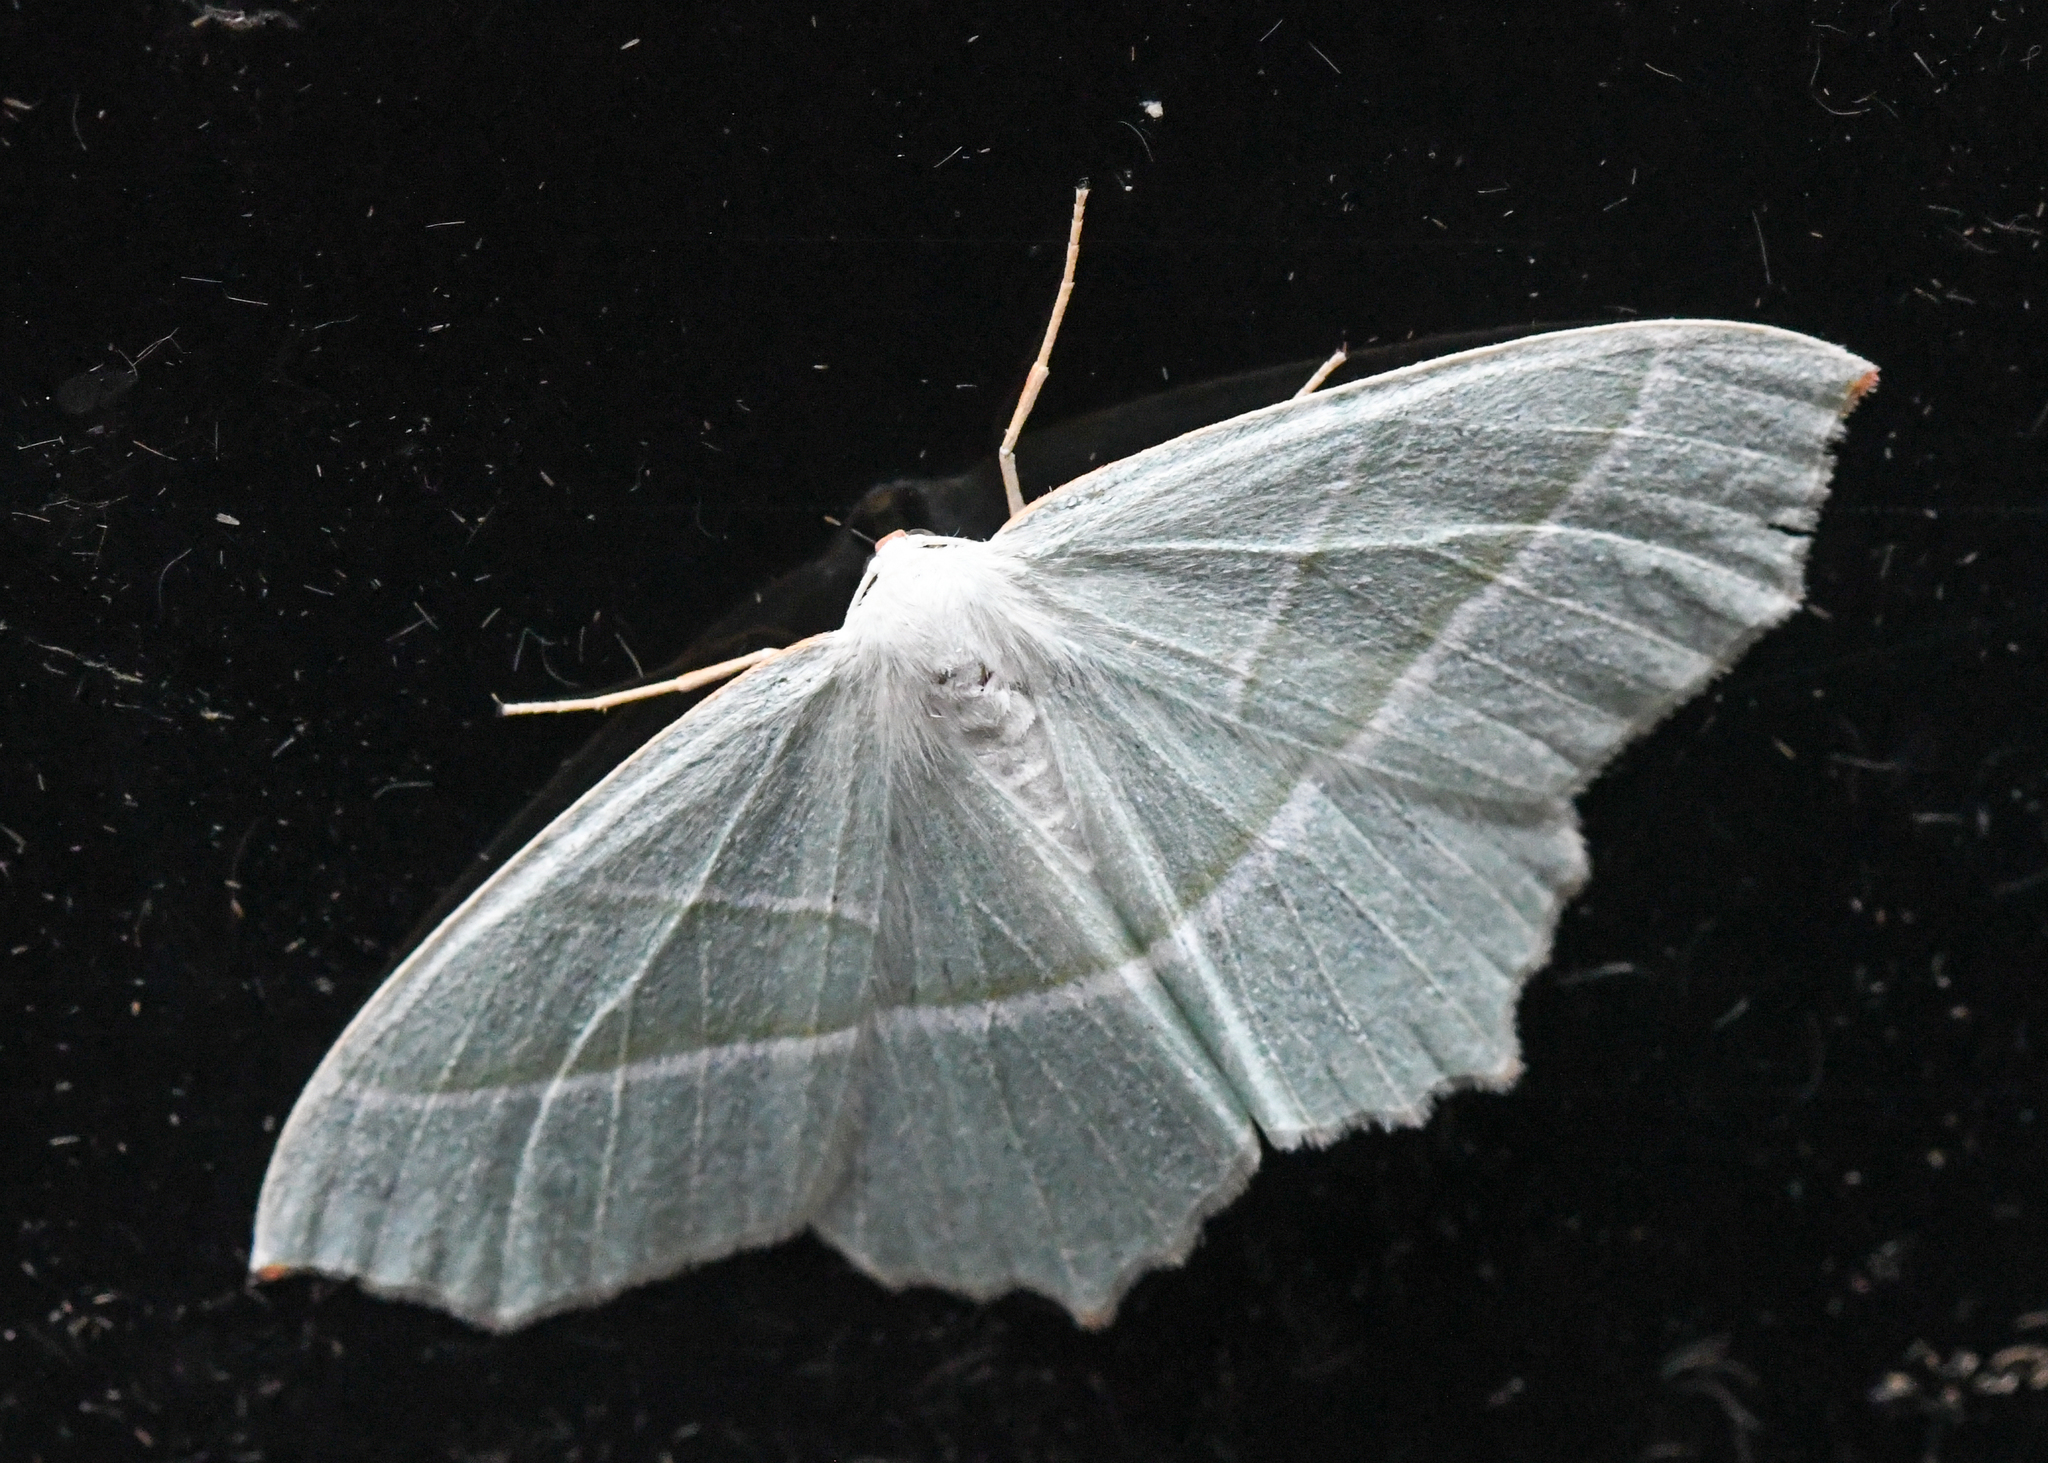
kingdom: Animalia
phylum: Arthropoda
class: Insecta
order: Lepidoptera
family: Geometridae
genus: Campaea
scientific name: Campaea margaritaria
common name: Light emerald
